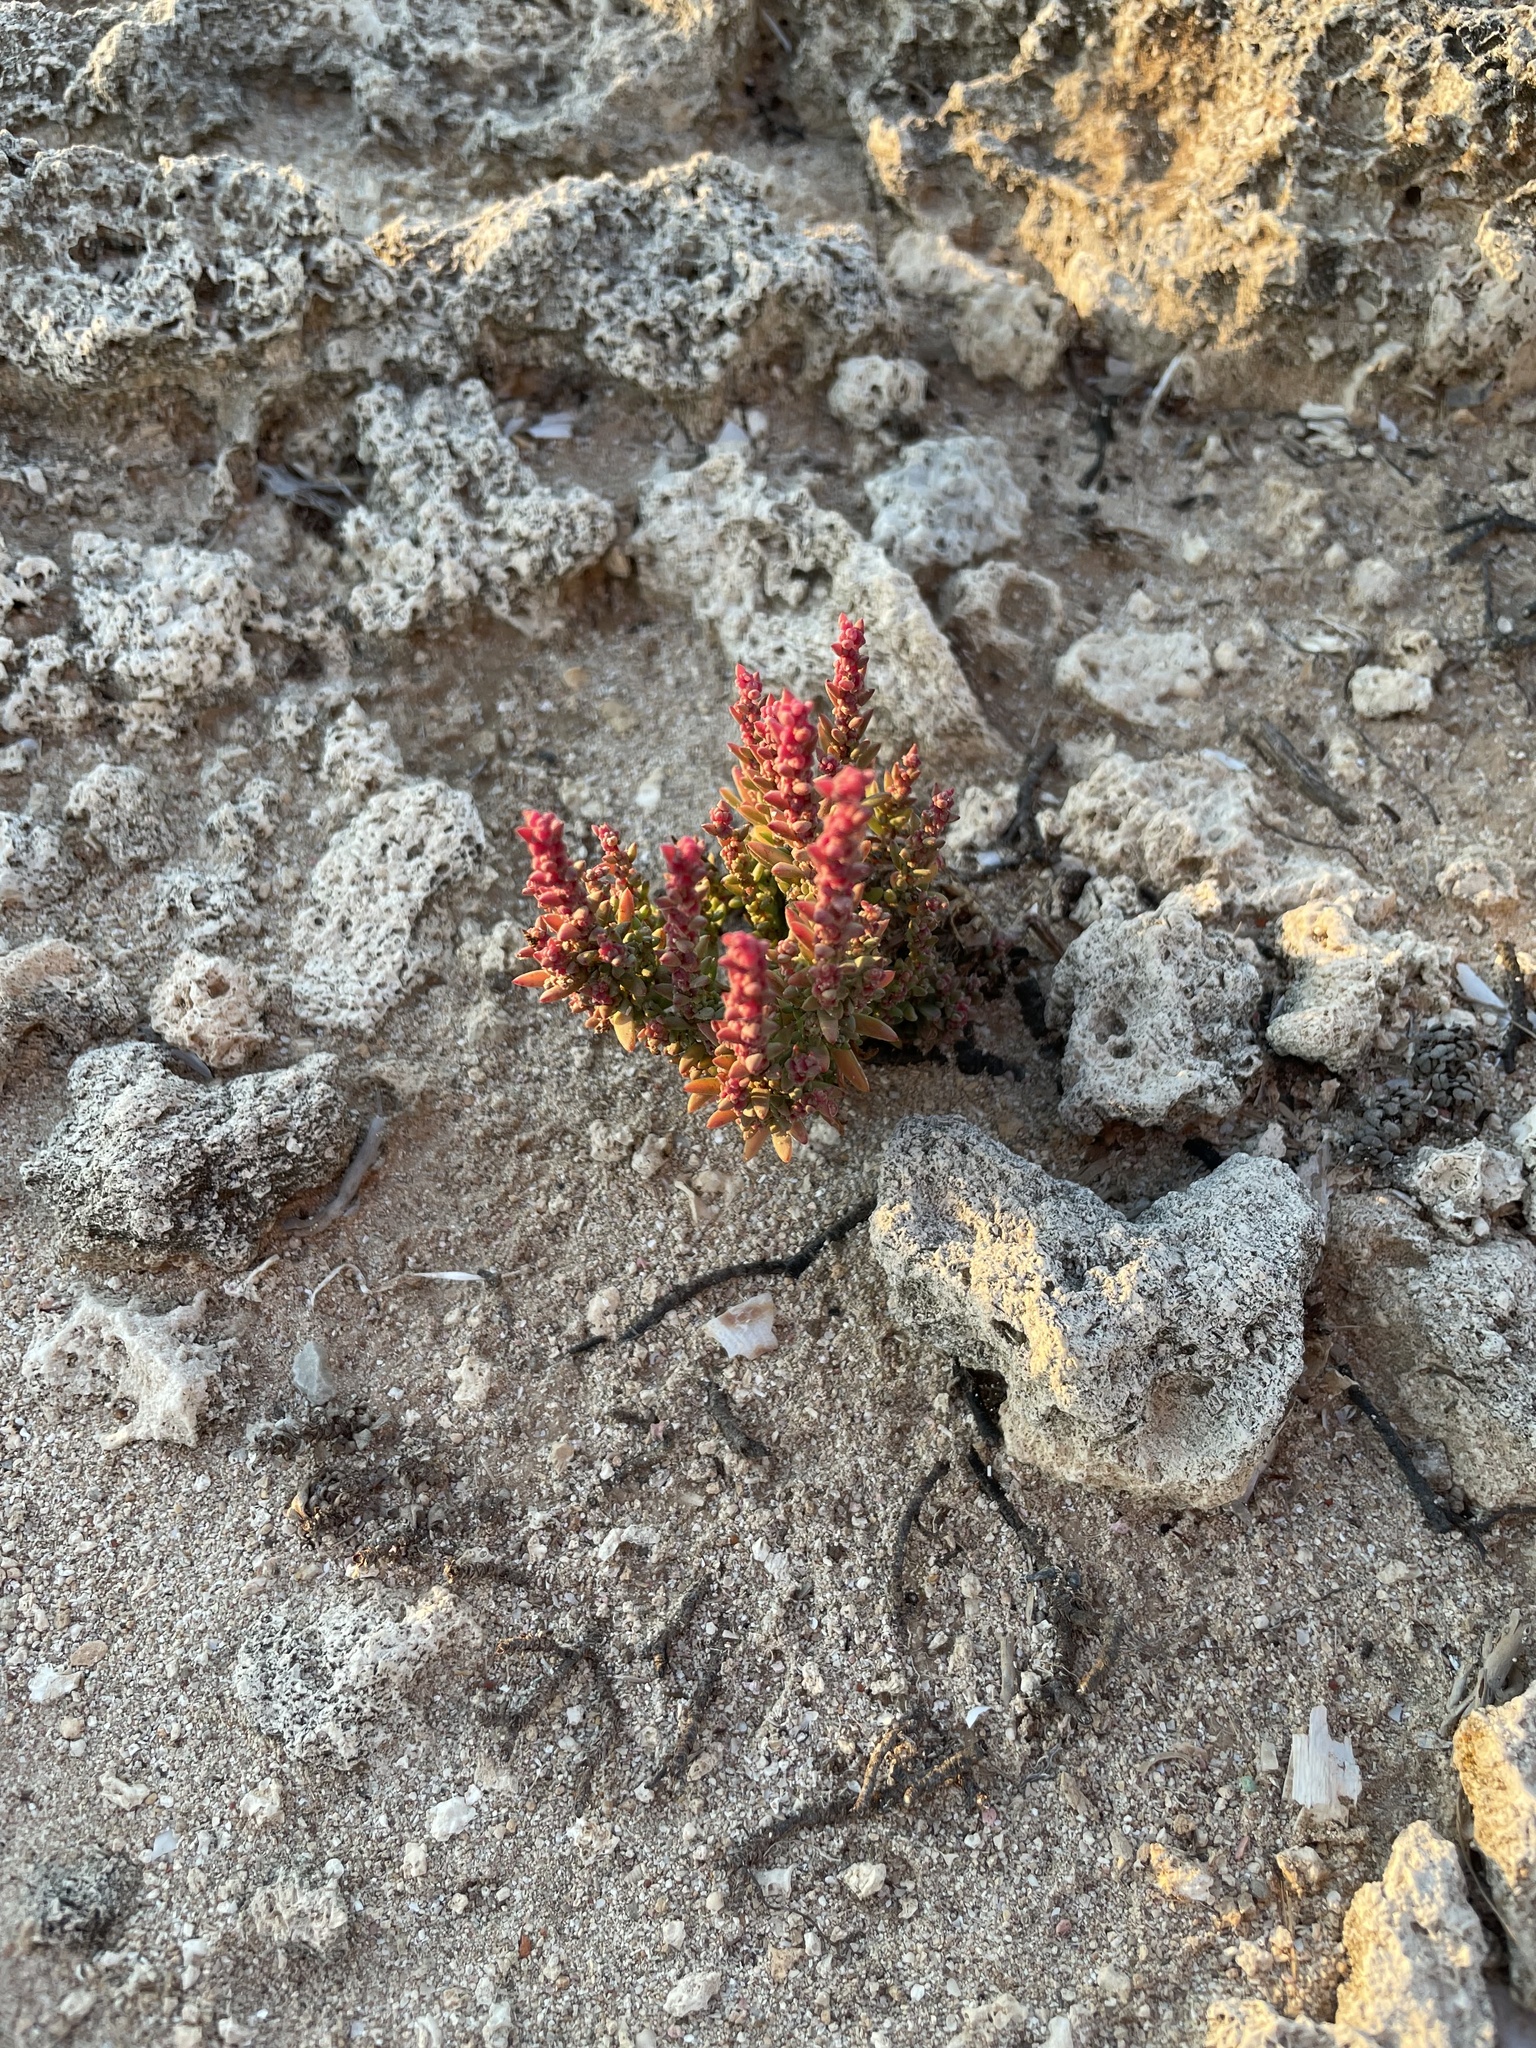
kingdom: Plantae
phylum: Tracheophyta
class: Magnoliopsida
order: Caryophyllales
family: Polygonaceae
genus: Rumex
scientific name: Rumex bucephalophorus
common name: Red dock
